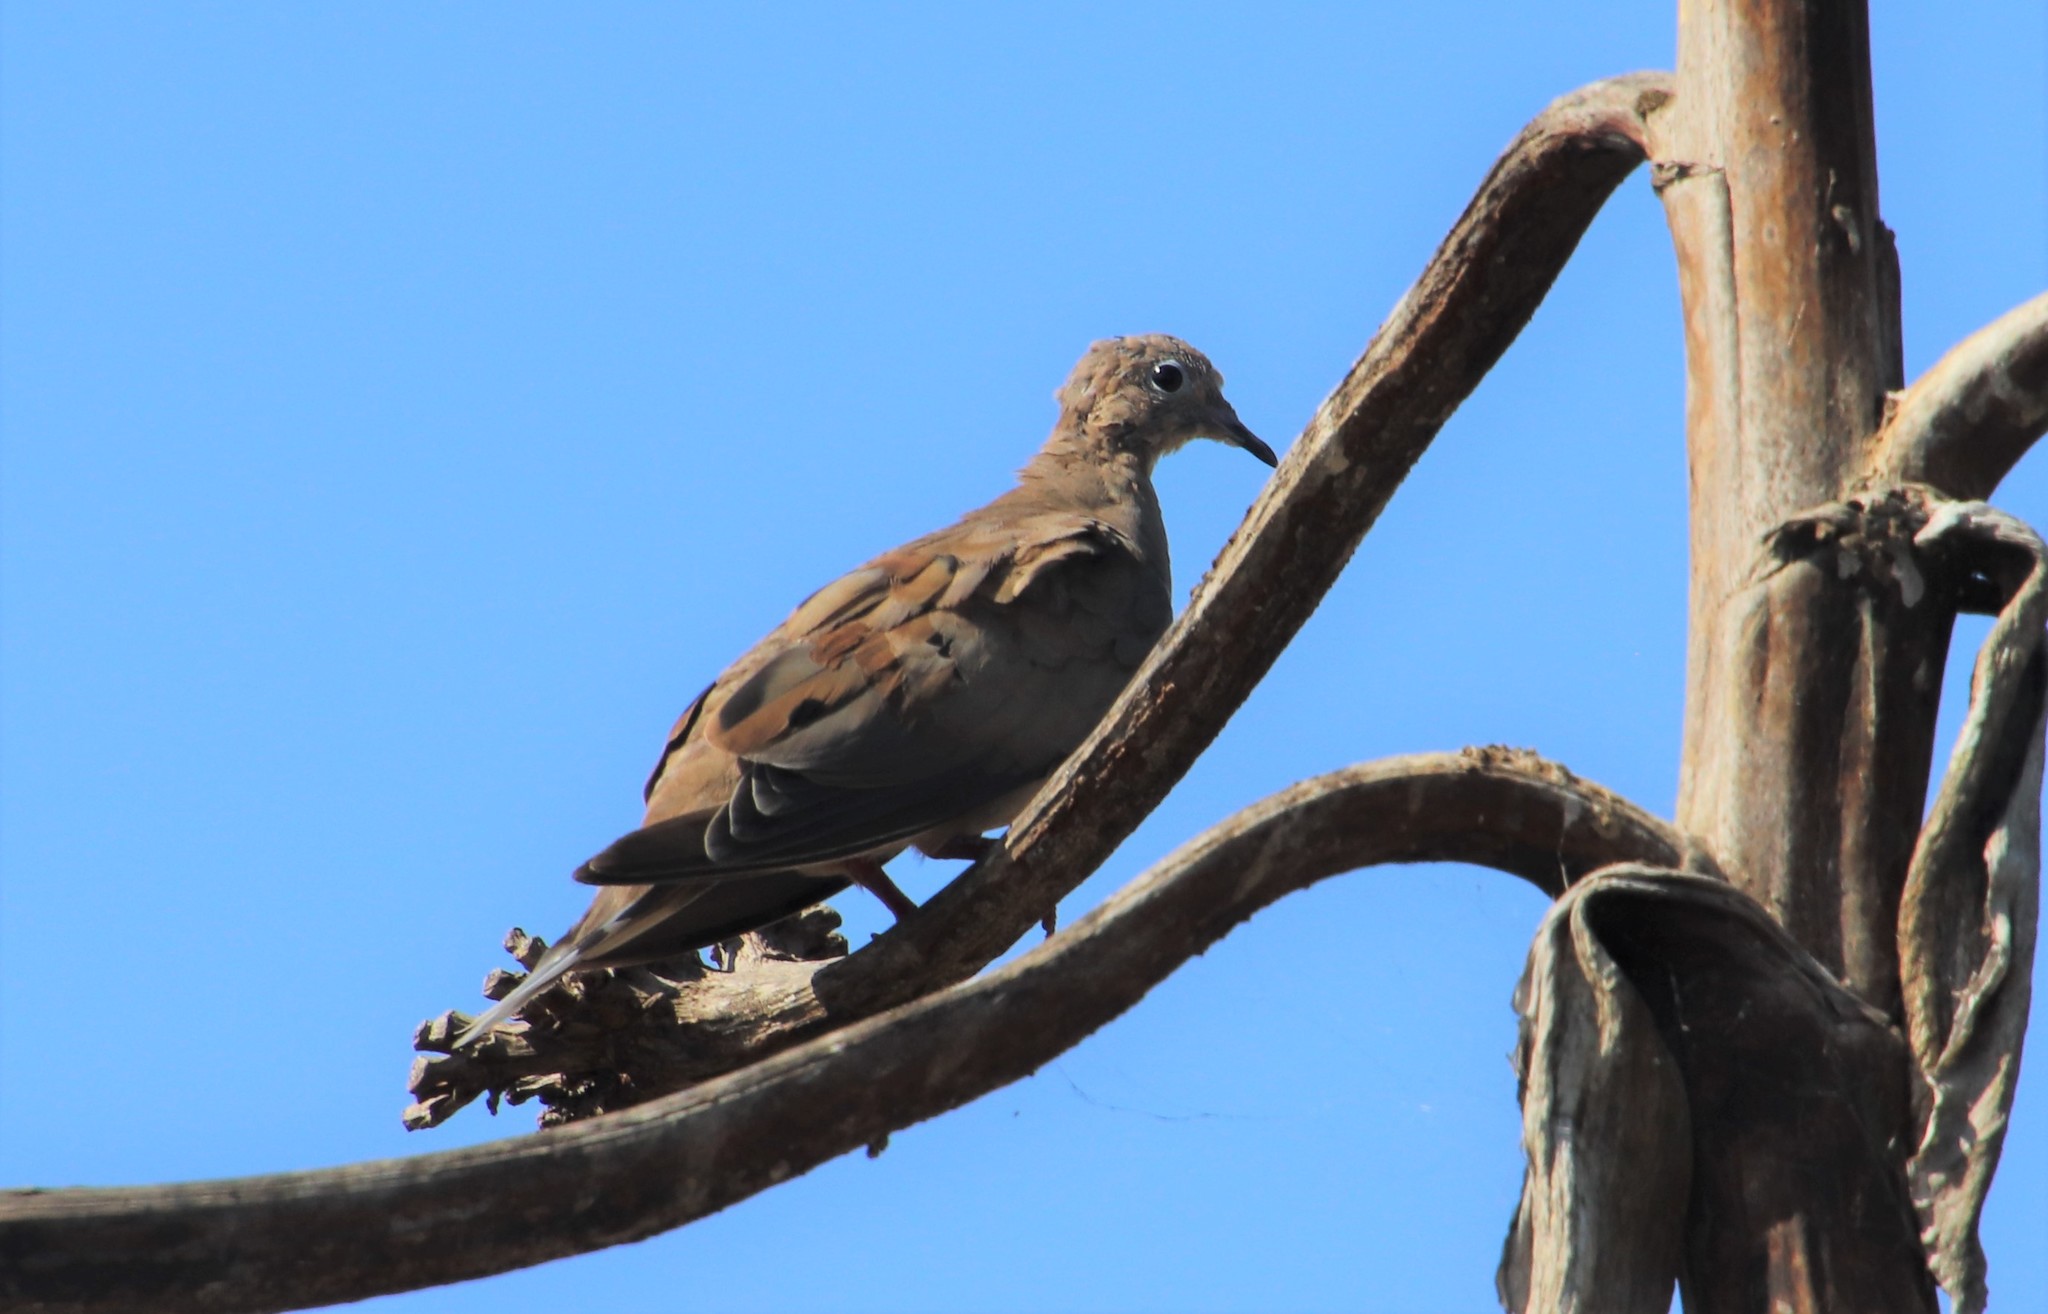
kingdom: Animalia
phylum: Chordata
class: Aves
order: Columbiformes
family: Columbidae
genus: Zenaida
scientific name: Zenaida macroura
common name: Mourning dove
